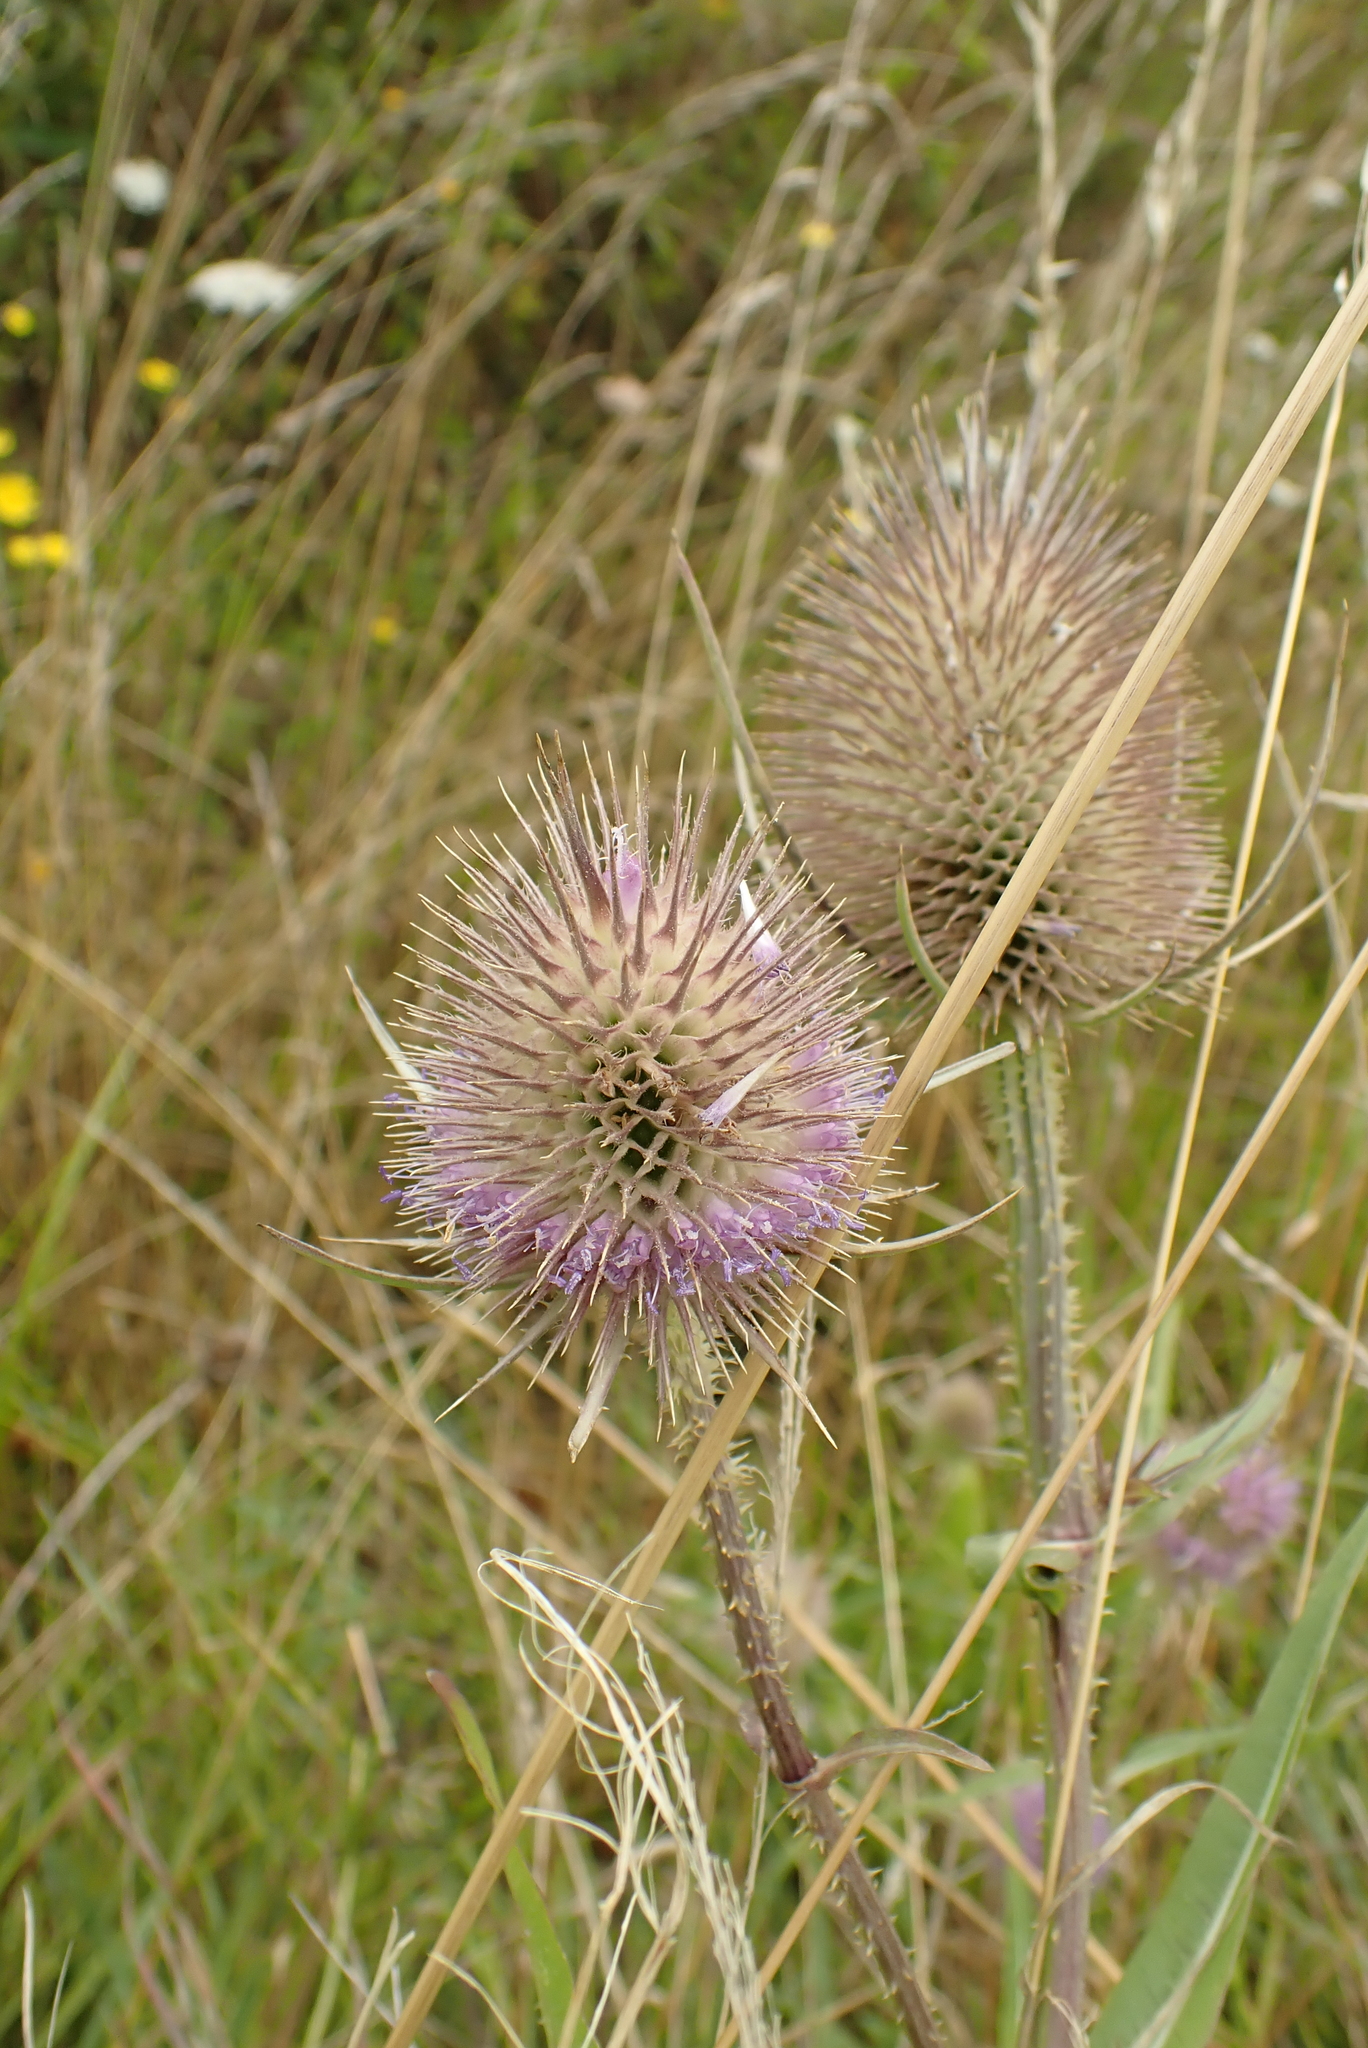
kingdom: Plantae
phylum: Tracheophyta
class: Magnoliopsida
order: Dipsacales
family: Caprifoliaceae
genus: Dipsacus
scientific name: Dipsacus fullonum
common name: Teasel
